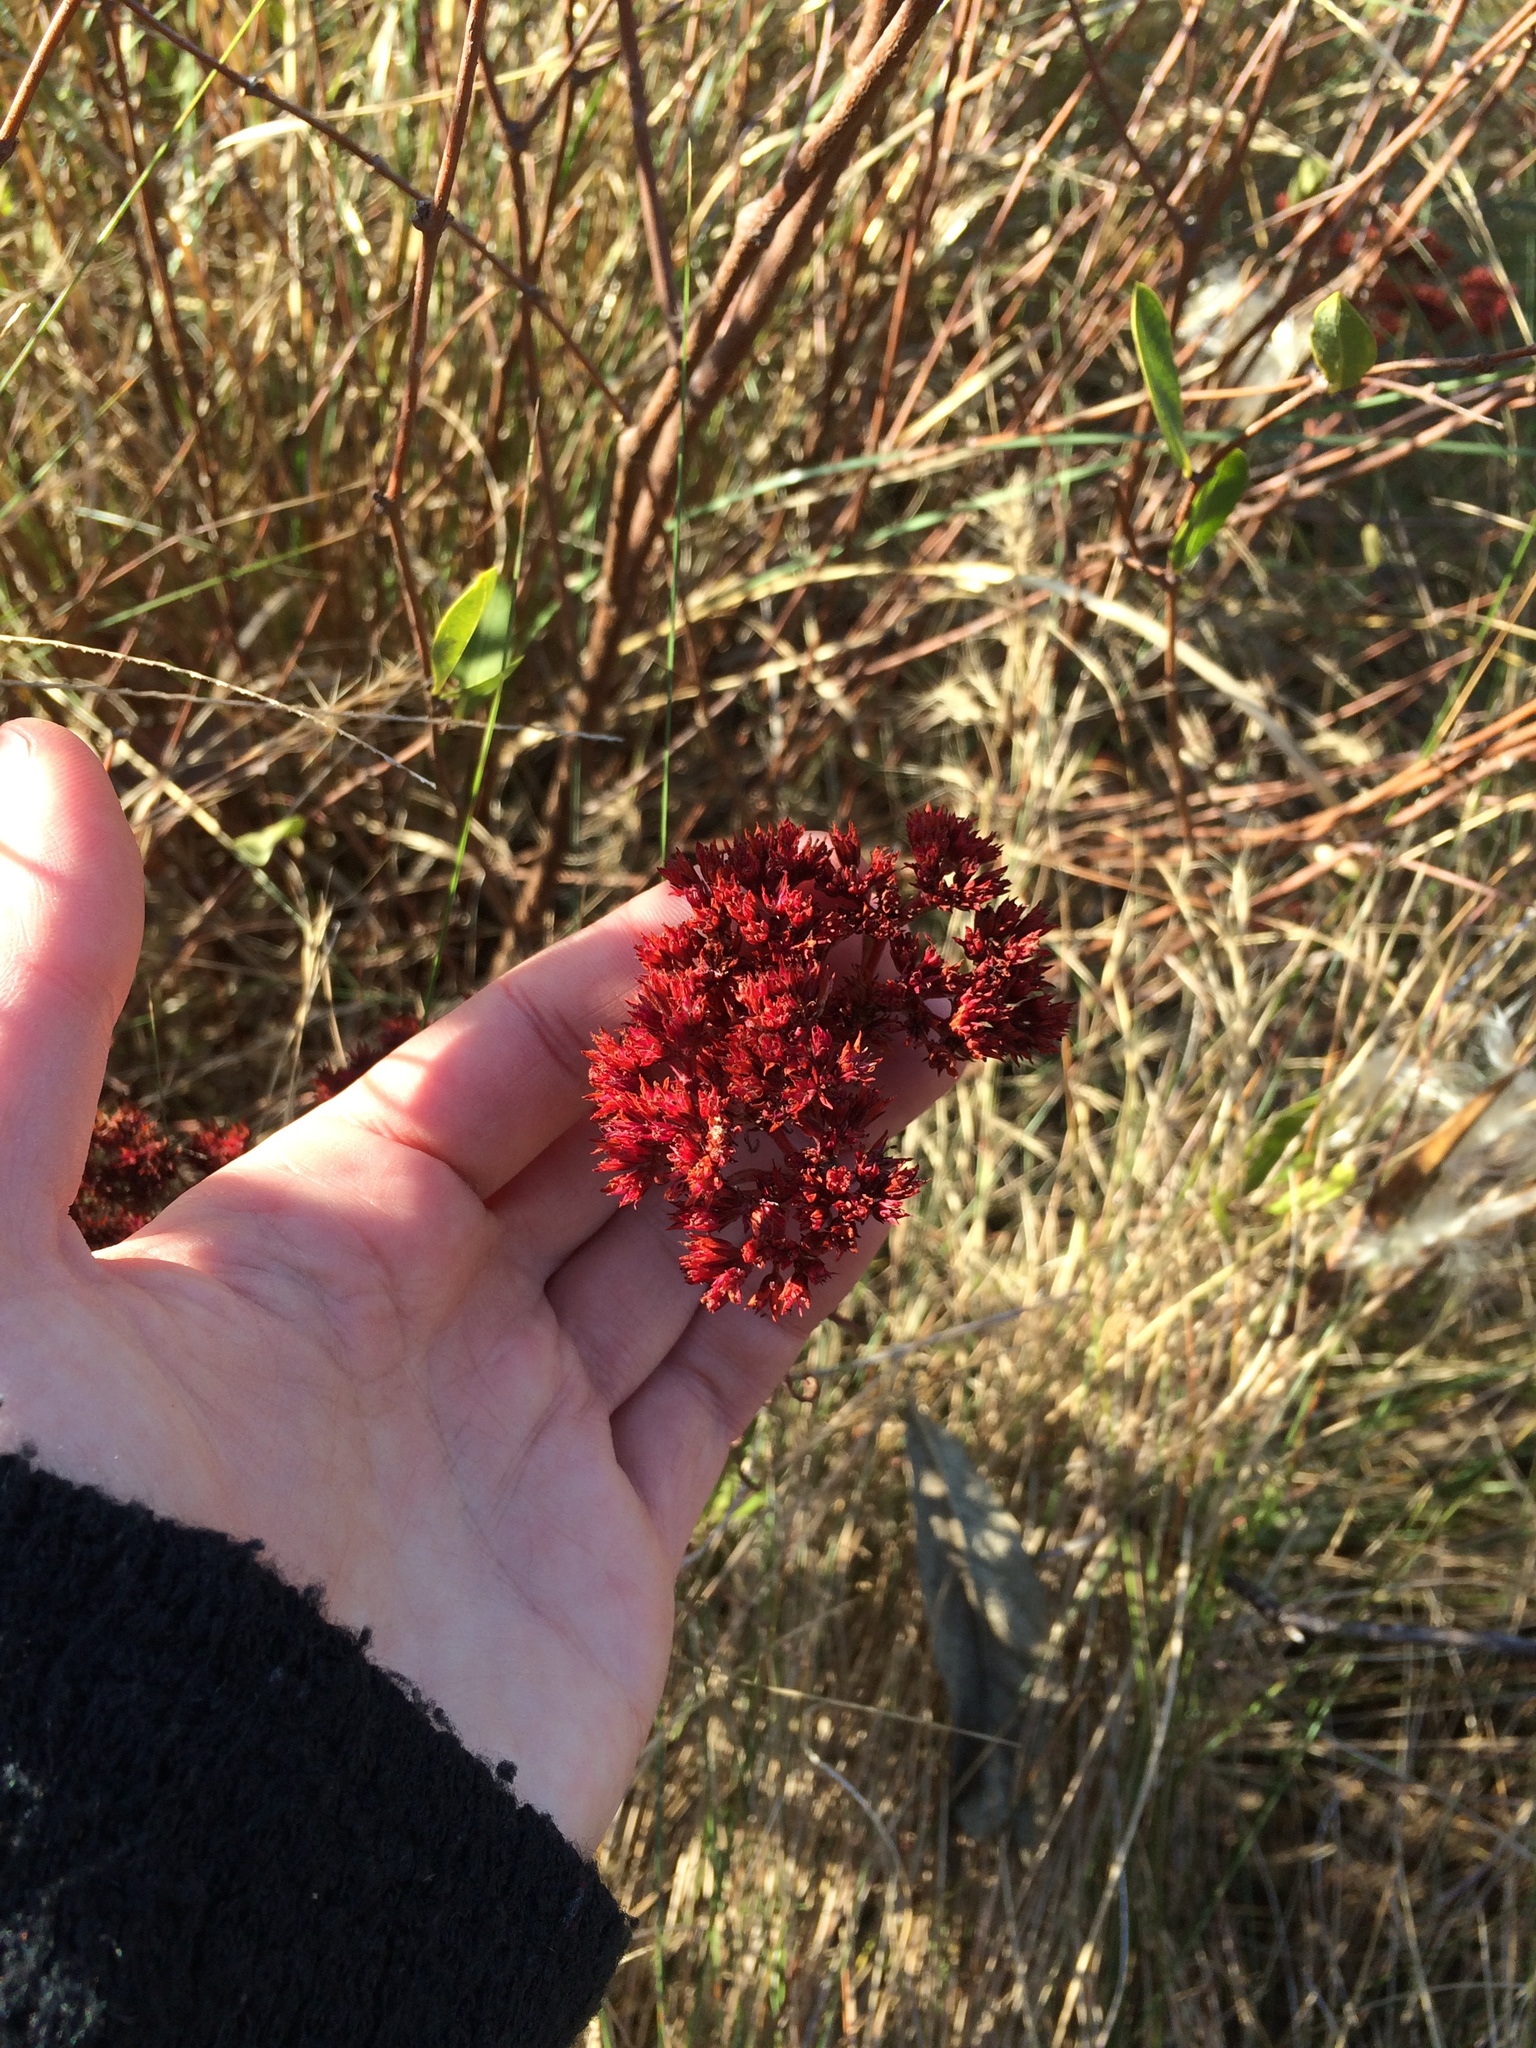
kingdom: Plantae
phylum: Tracheophyta
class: Magnoliopsida
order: Saxifragales
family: Crassulaceae
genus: Crassula
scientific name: Crassula alba
